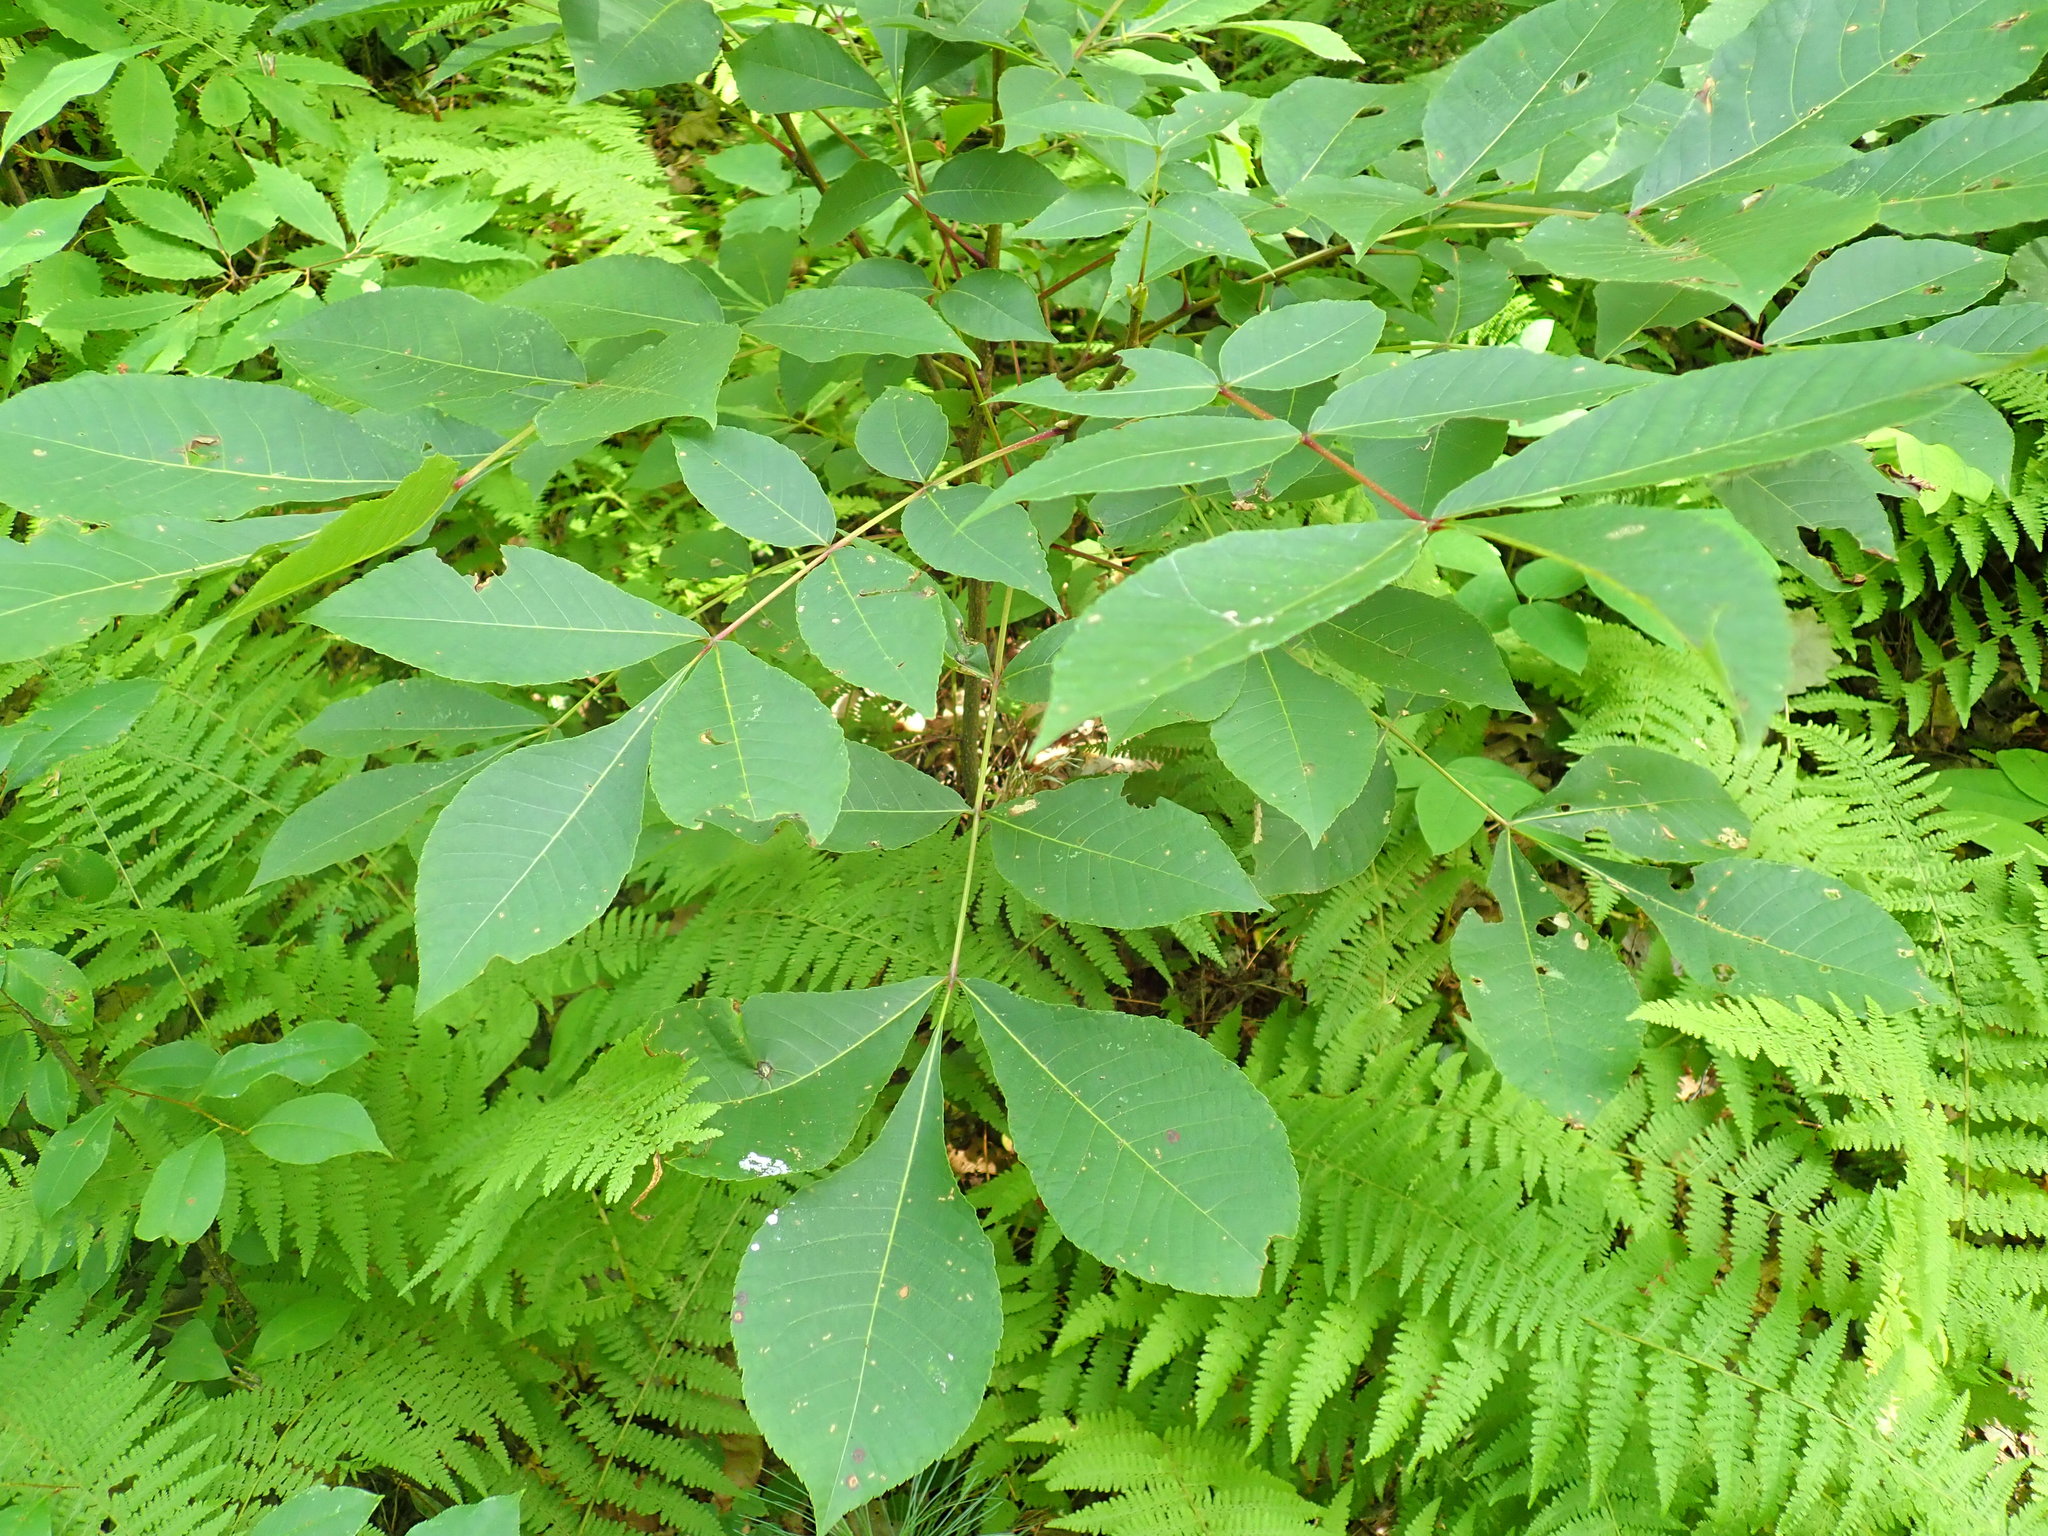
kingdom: Plantae
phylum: Tracheophyta
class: Magnoliopsida
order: Fagales
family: Juglandaceae
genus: Carya
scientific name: Carya
